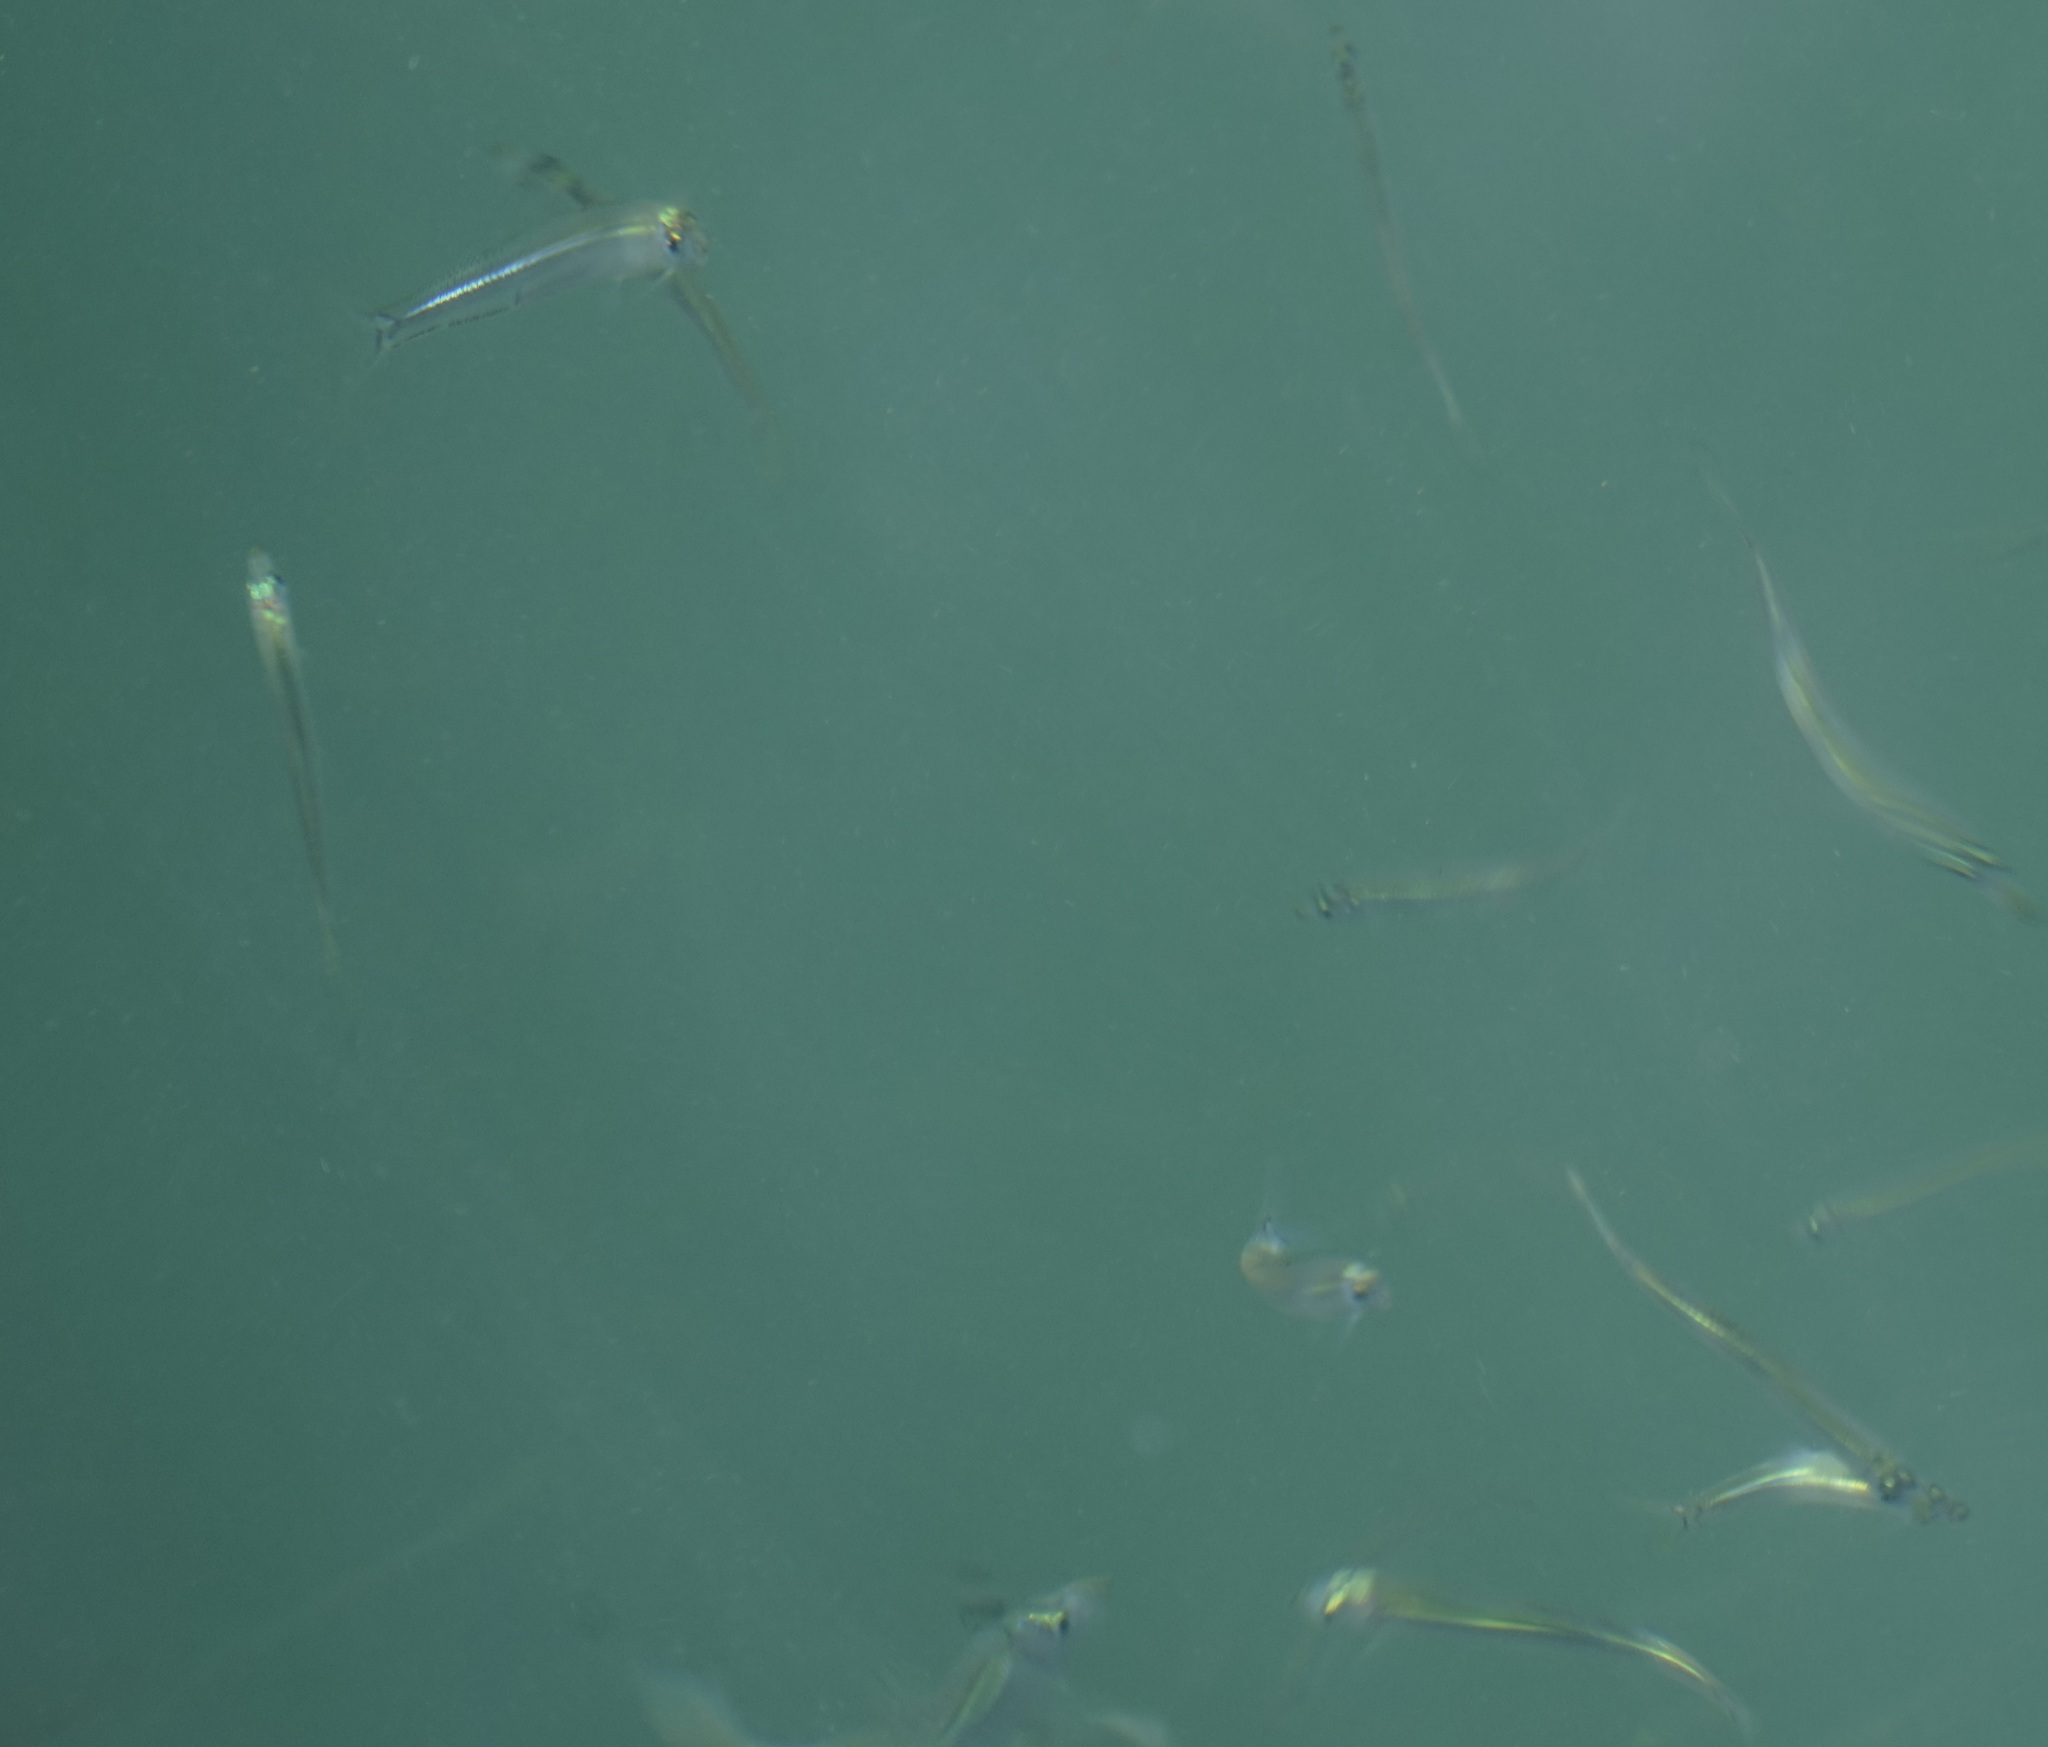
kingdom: Animalia
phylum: Chordata
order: Clupeiformes
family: Clupeidae
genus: Hyperlophus
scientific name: Hyperlophus vittatus
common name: Sandy sprat
